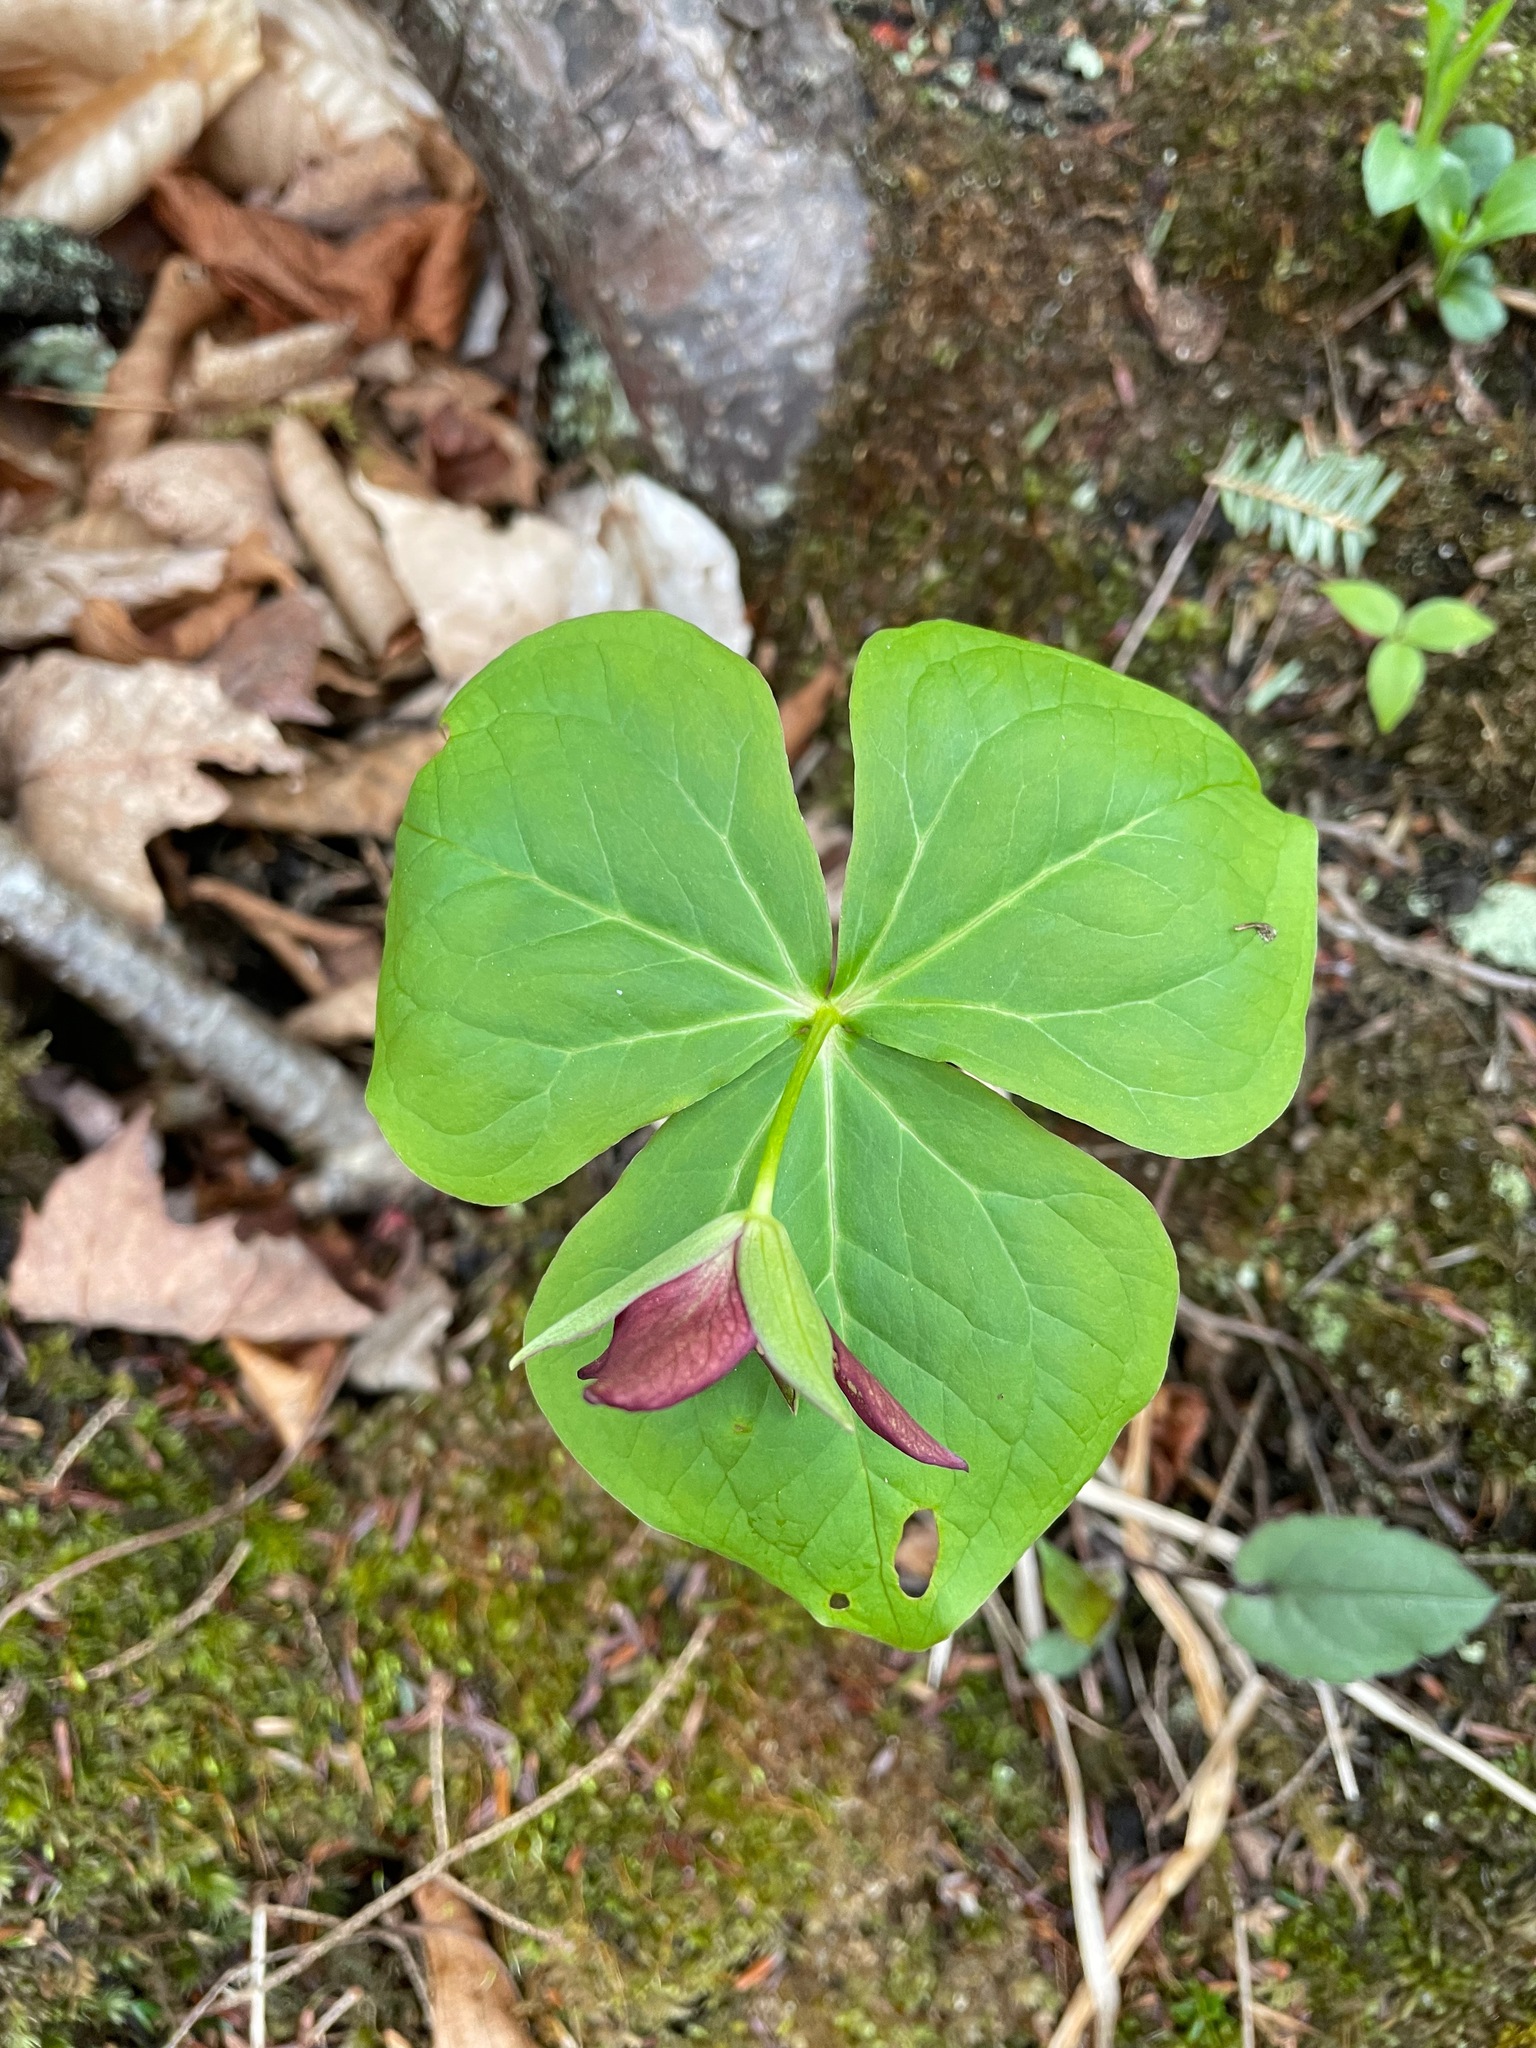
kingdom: Plantae
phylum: Tracheophyta
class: Liliopsida
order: Liliales
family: Melanthiaceae
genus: Trillium
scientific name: Trillium erectum
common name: Purple trillium
